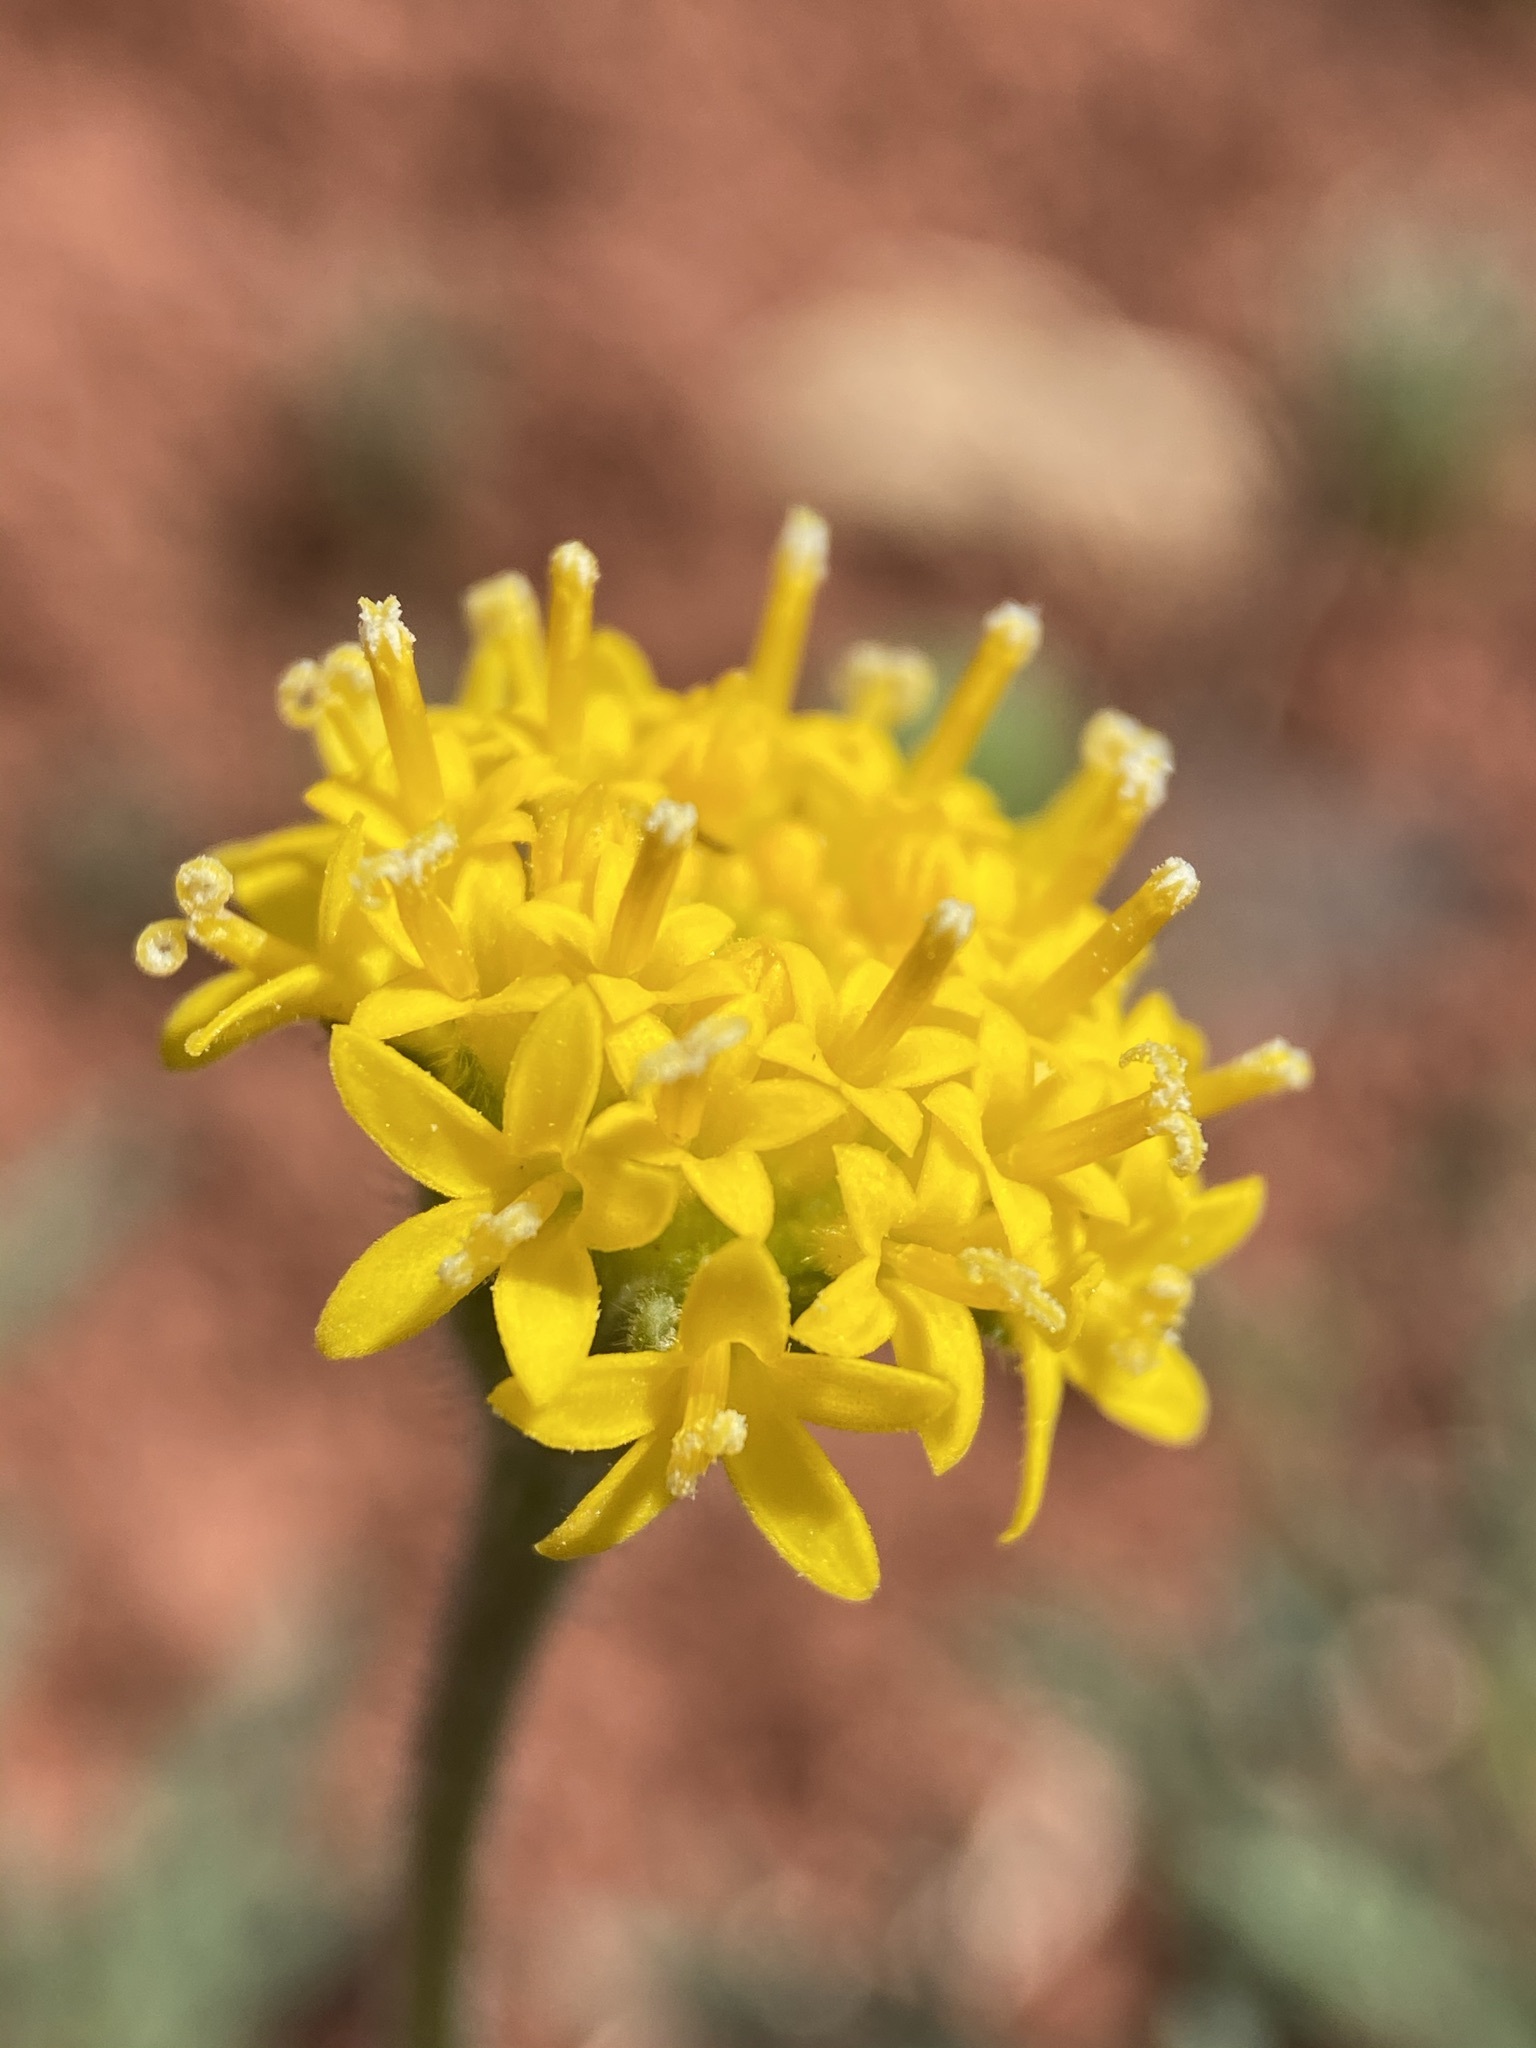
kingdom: Plantae
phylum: Tracheophyta
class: Magnoliopsida
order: Asterales
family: Asteraceae
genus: Chaenactis
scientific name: Chaenactis nevii
